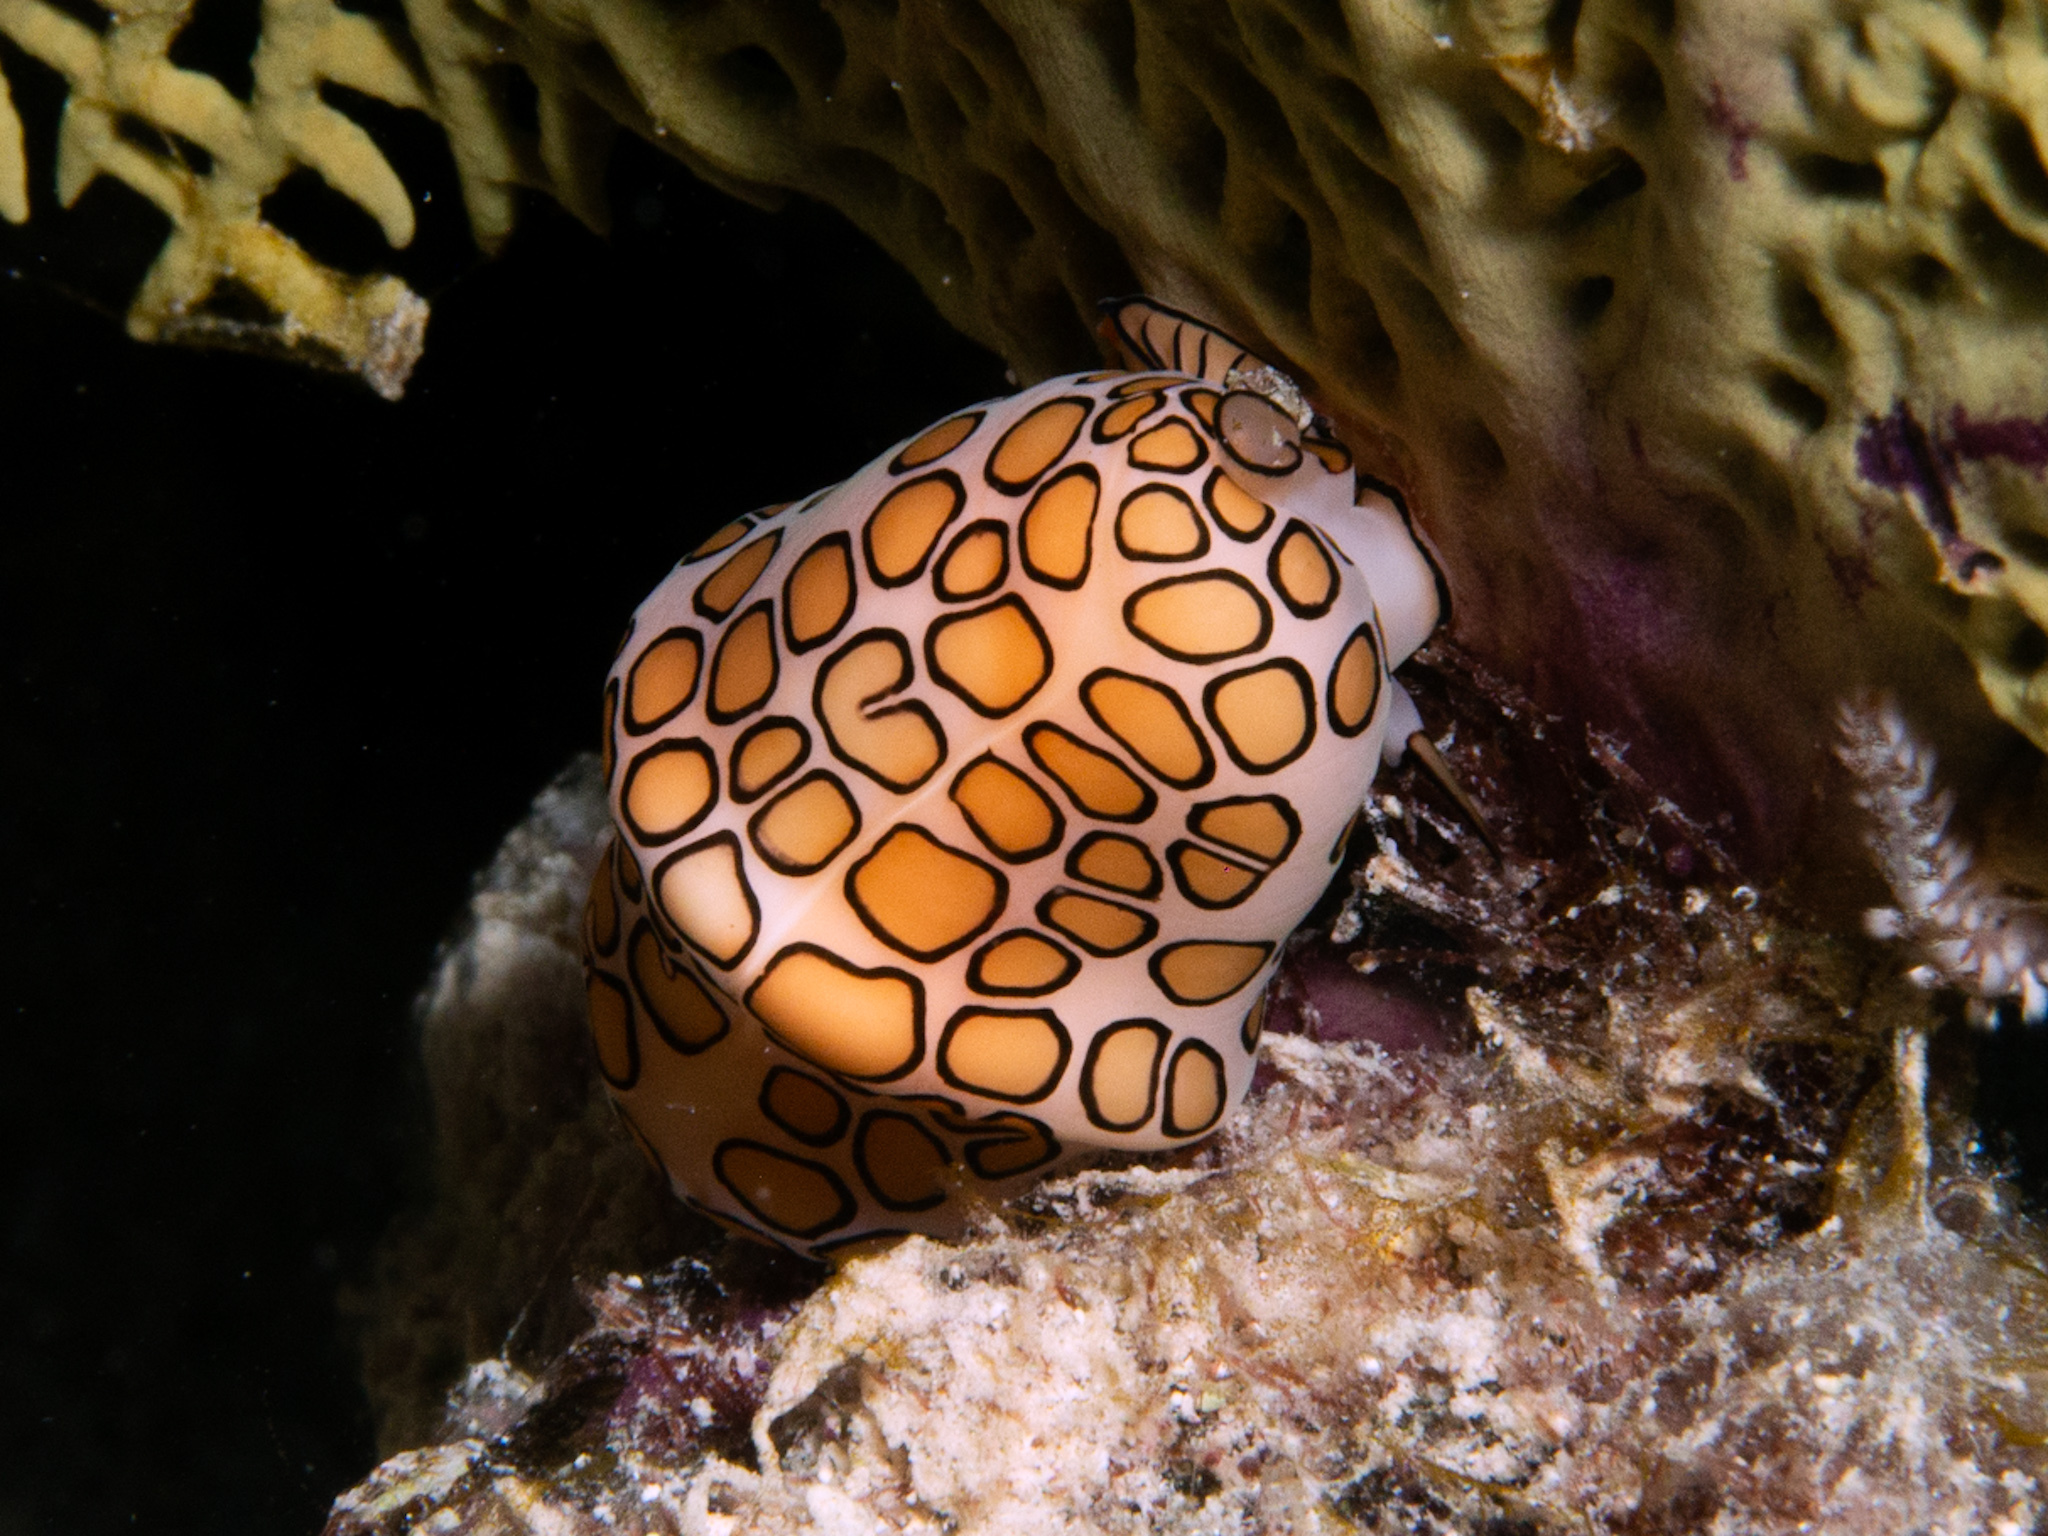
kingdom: Animalia
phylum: Mollusca
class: Gastropoda
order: Littorinimorpha
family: Ovulidae
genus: Cyphoma
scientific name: Cyphoma gibbosum
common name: Flamingo tongue
